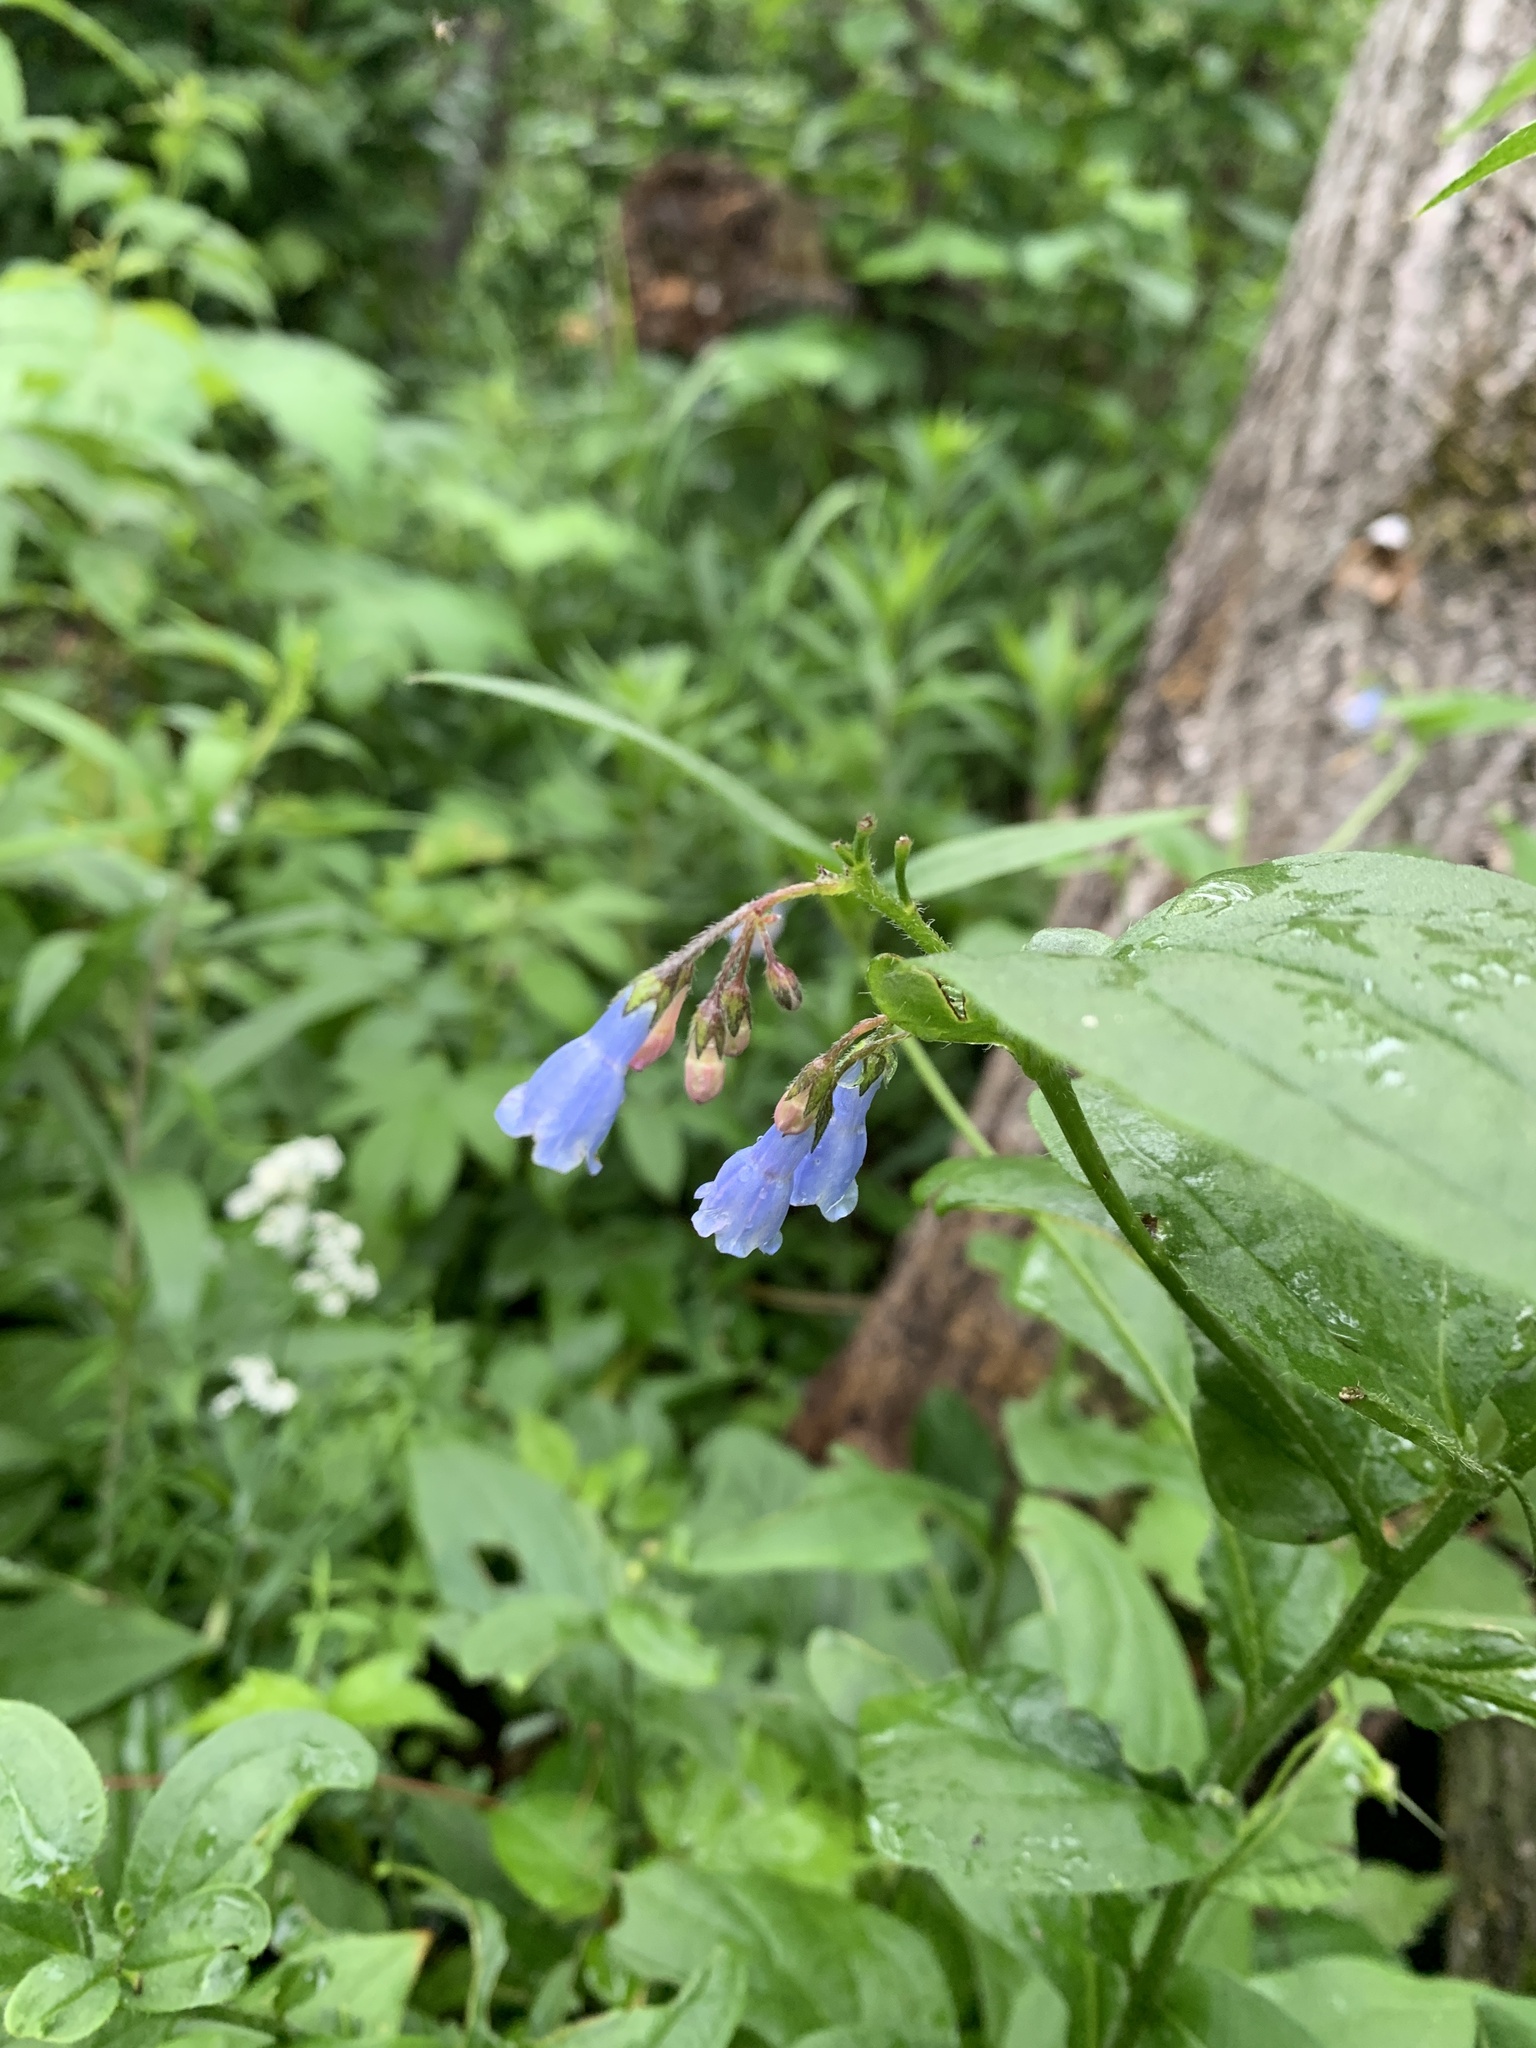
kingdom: Plantae
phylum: Tracheophyta
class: Magnoliopsida
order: Boraginales
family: Boraginaceae
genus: Mertensia
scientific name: Mertensia paniculata
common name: Panicled bluebells
